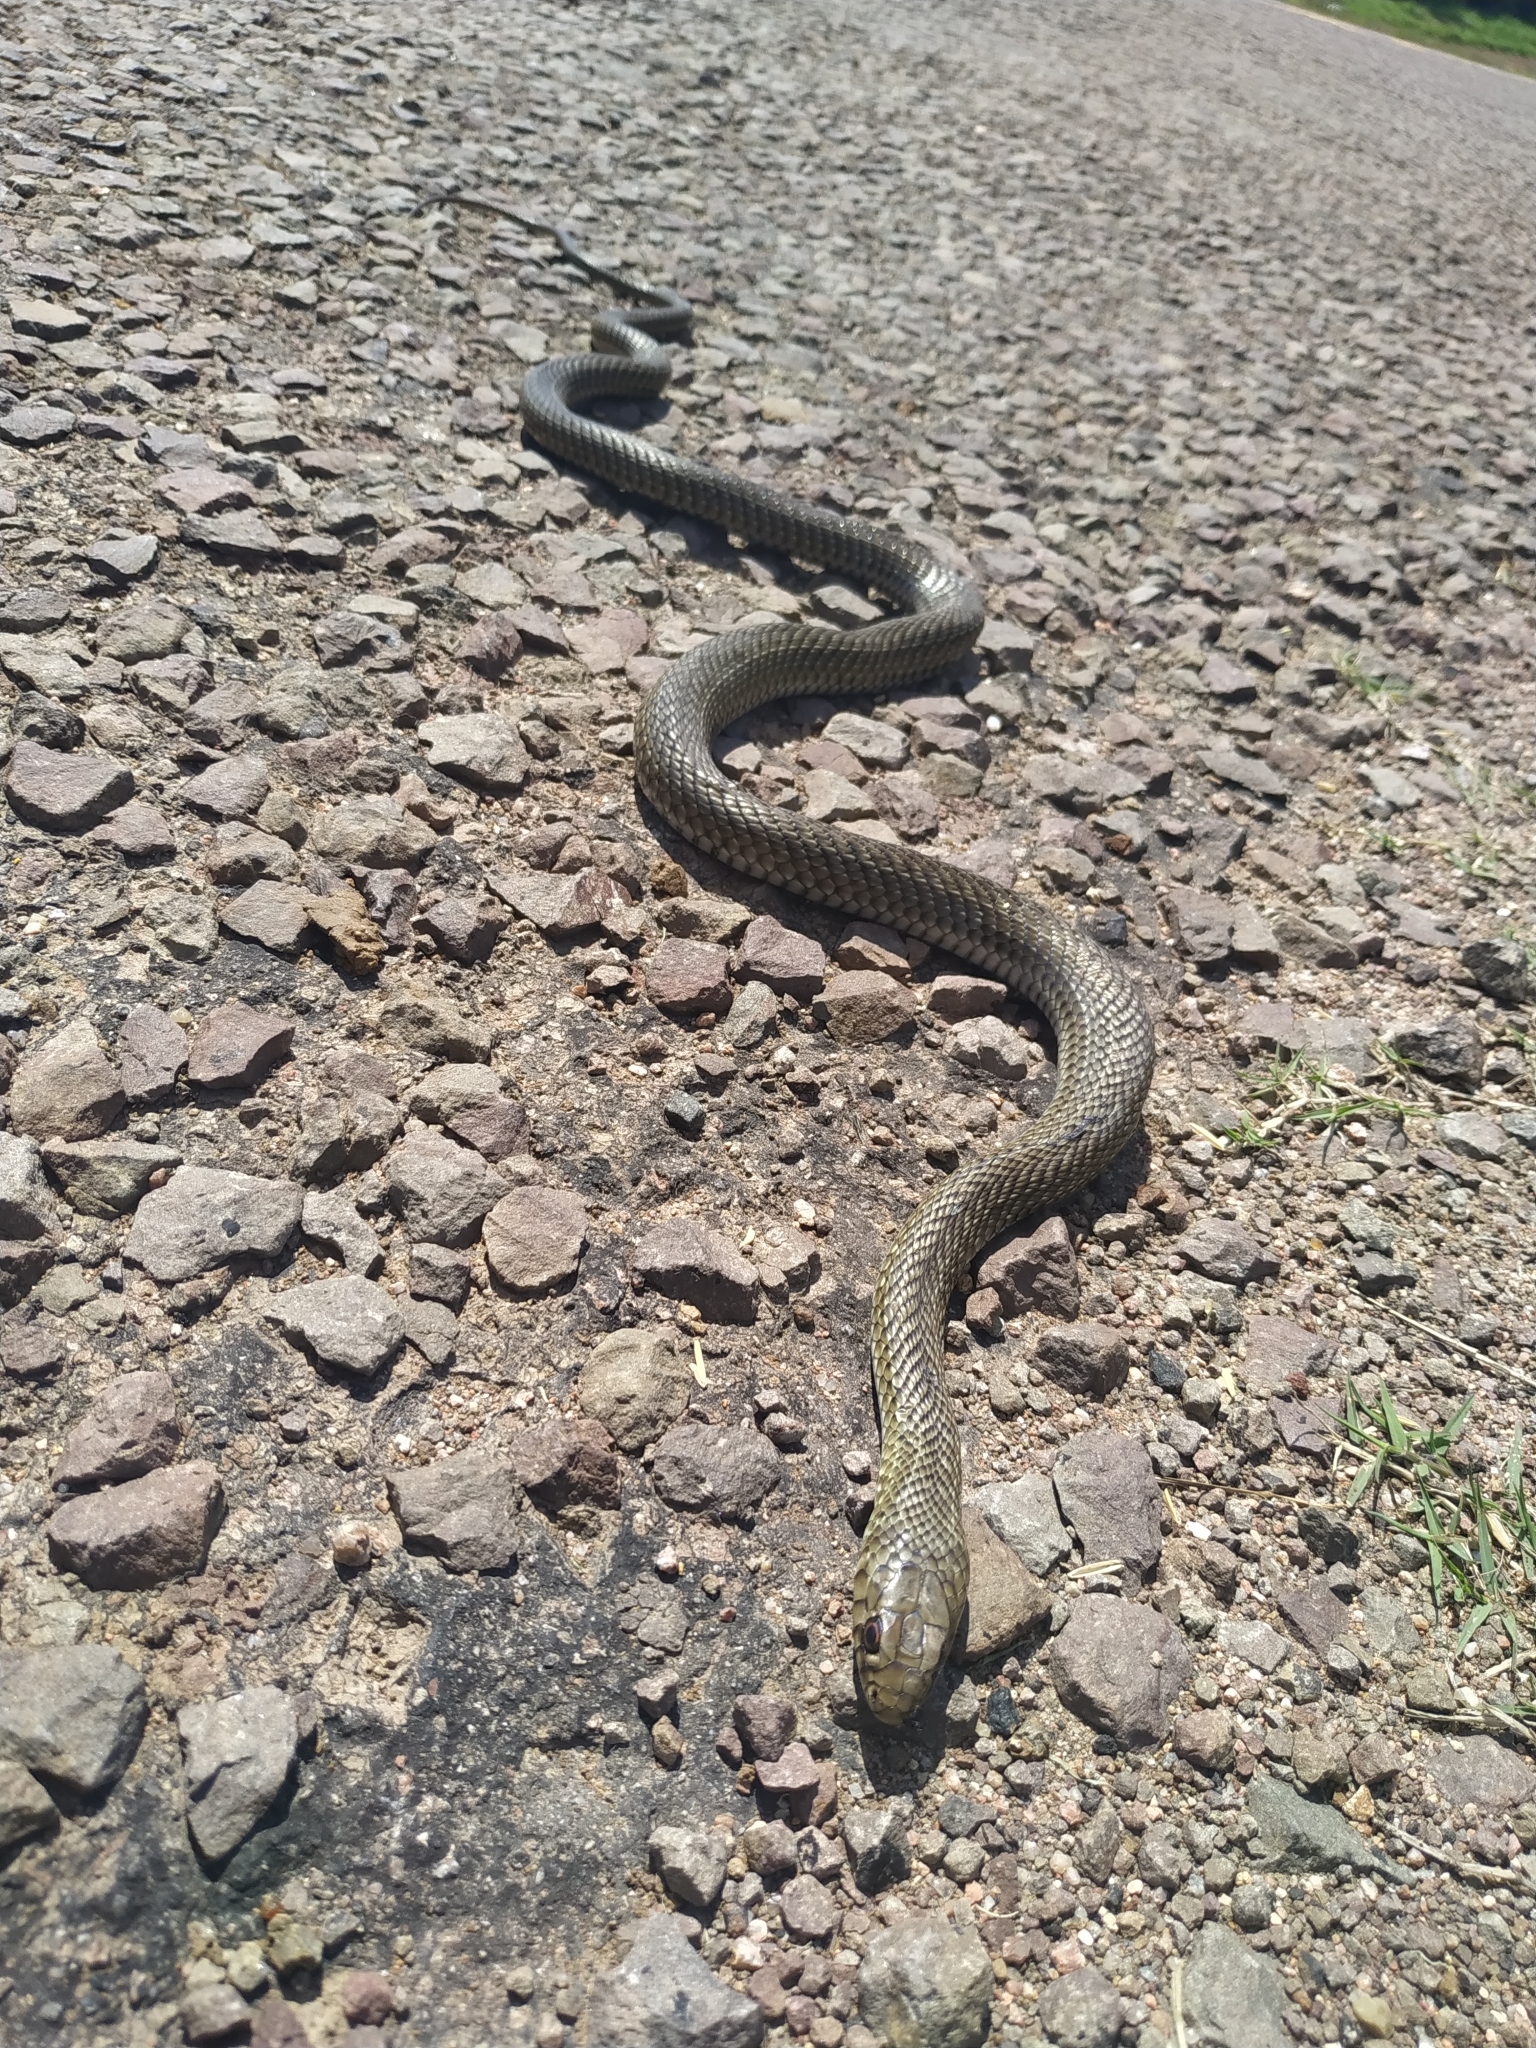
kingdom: Animalia
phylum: Chordata
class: Squamata
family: Colubridae
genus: Philodryas
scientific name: Philodryas patagoniensis
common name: Patagonia green racer
